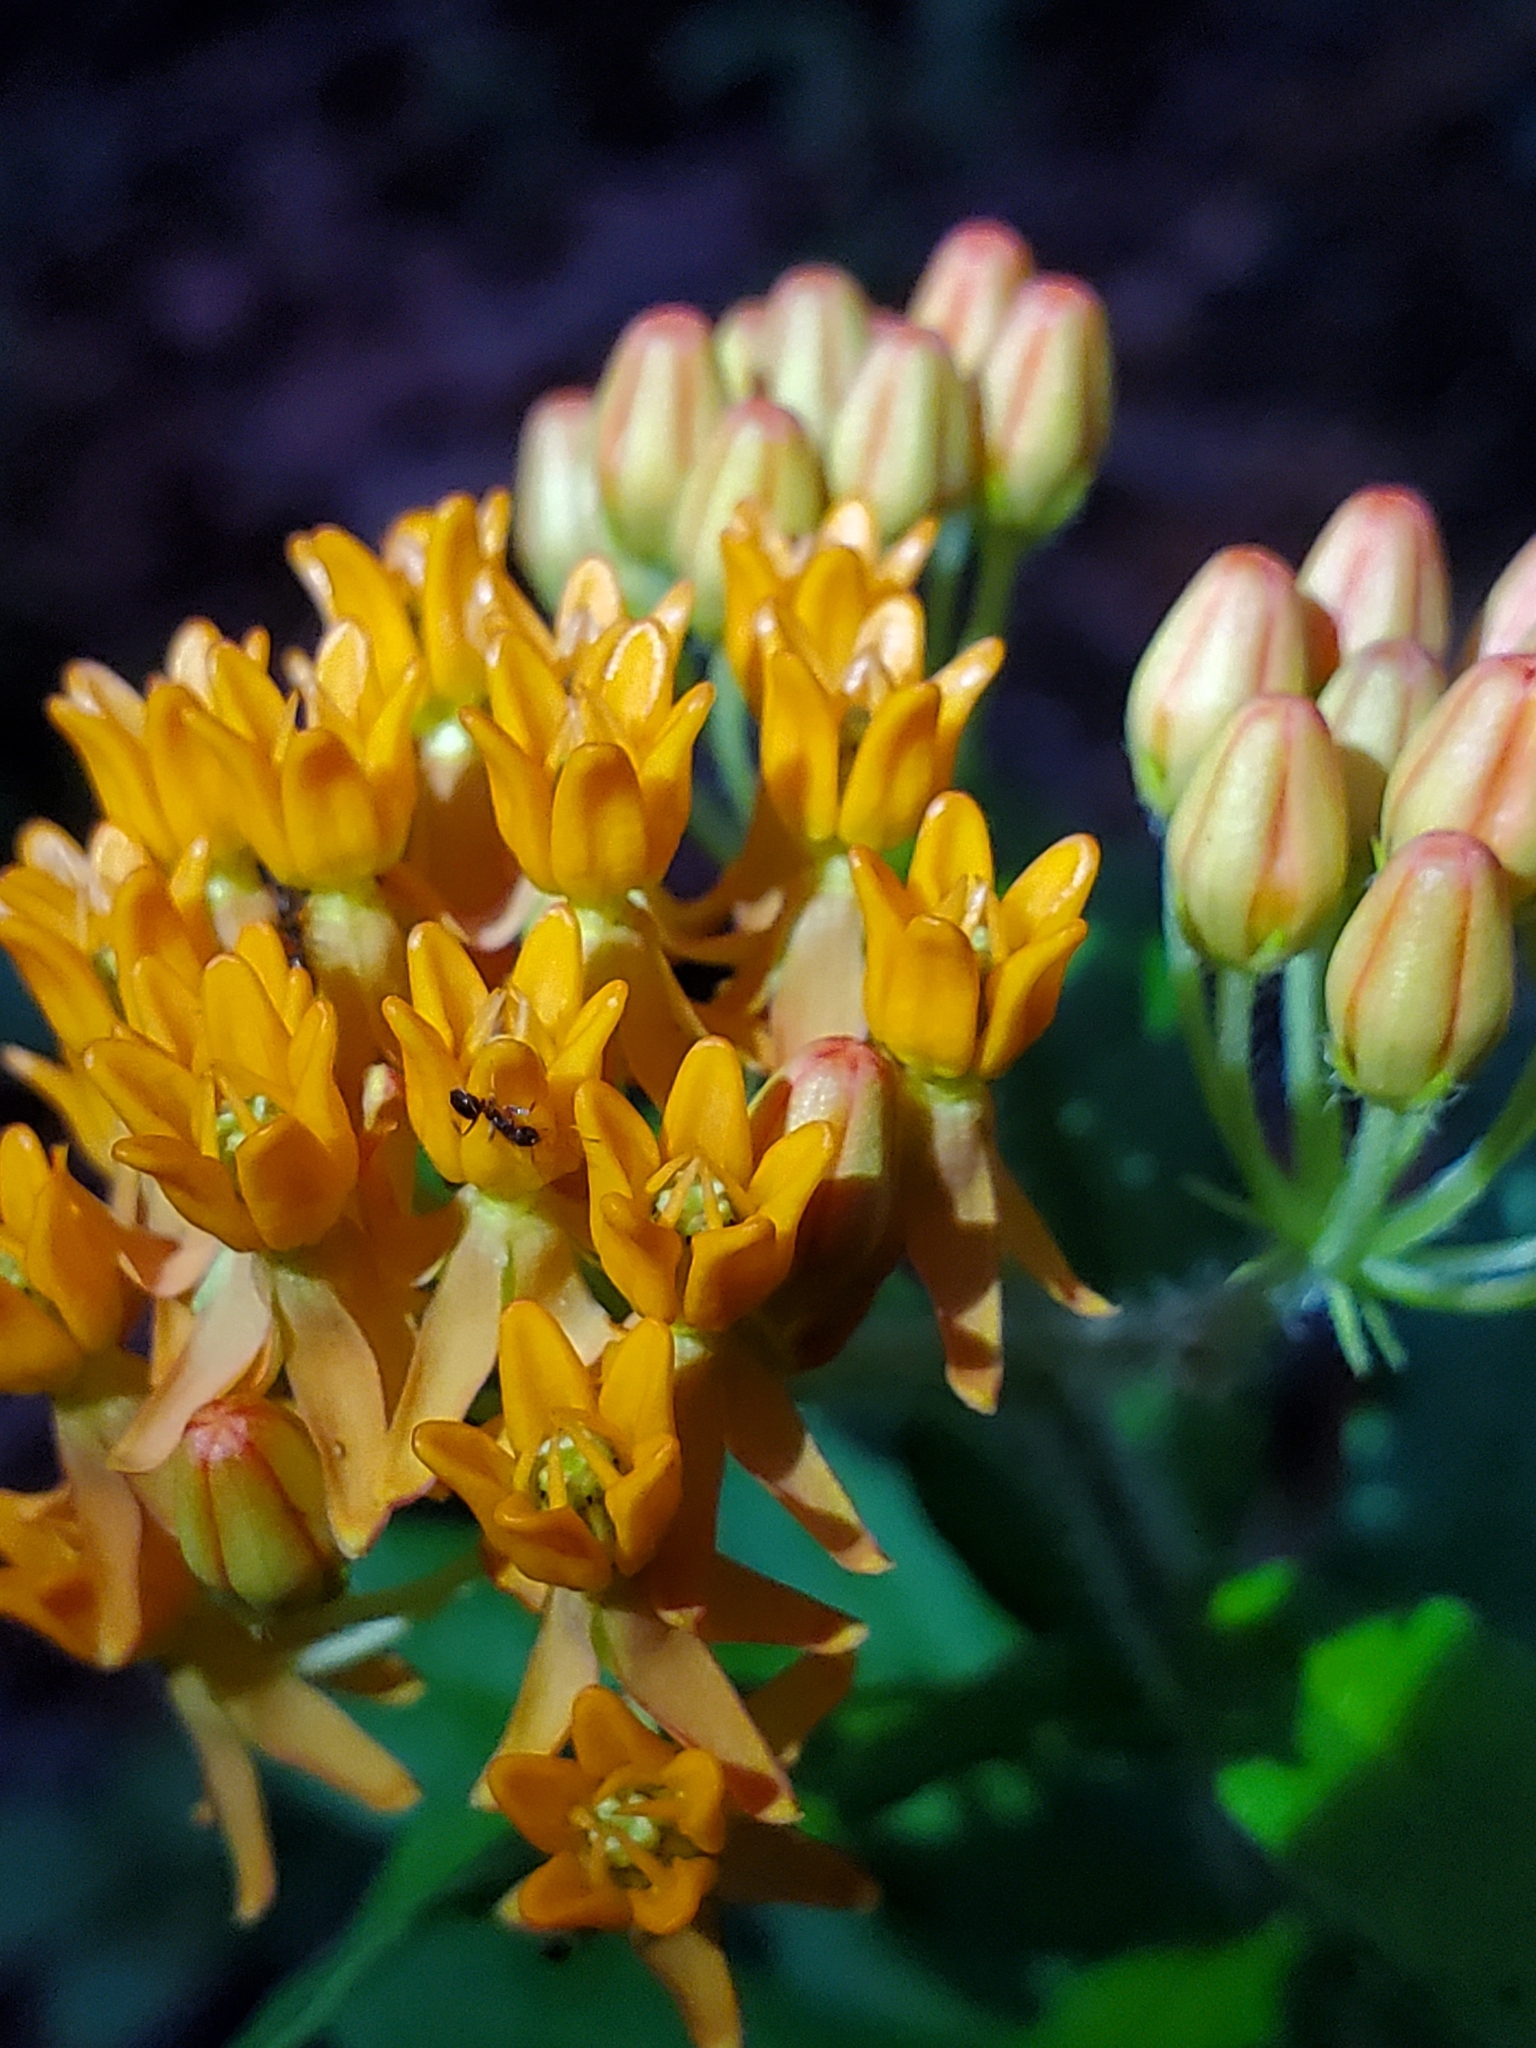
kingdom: Plantae
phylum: Tracheophyta
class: Magnoliopsida
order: Gentianales
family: Apocynaceae
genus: Asclepias
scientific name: Asclepias tuberosa
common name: Butterfly milkweed
